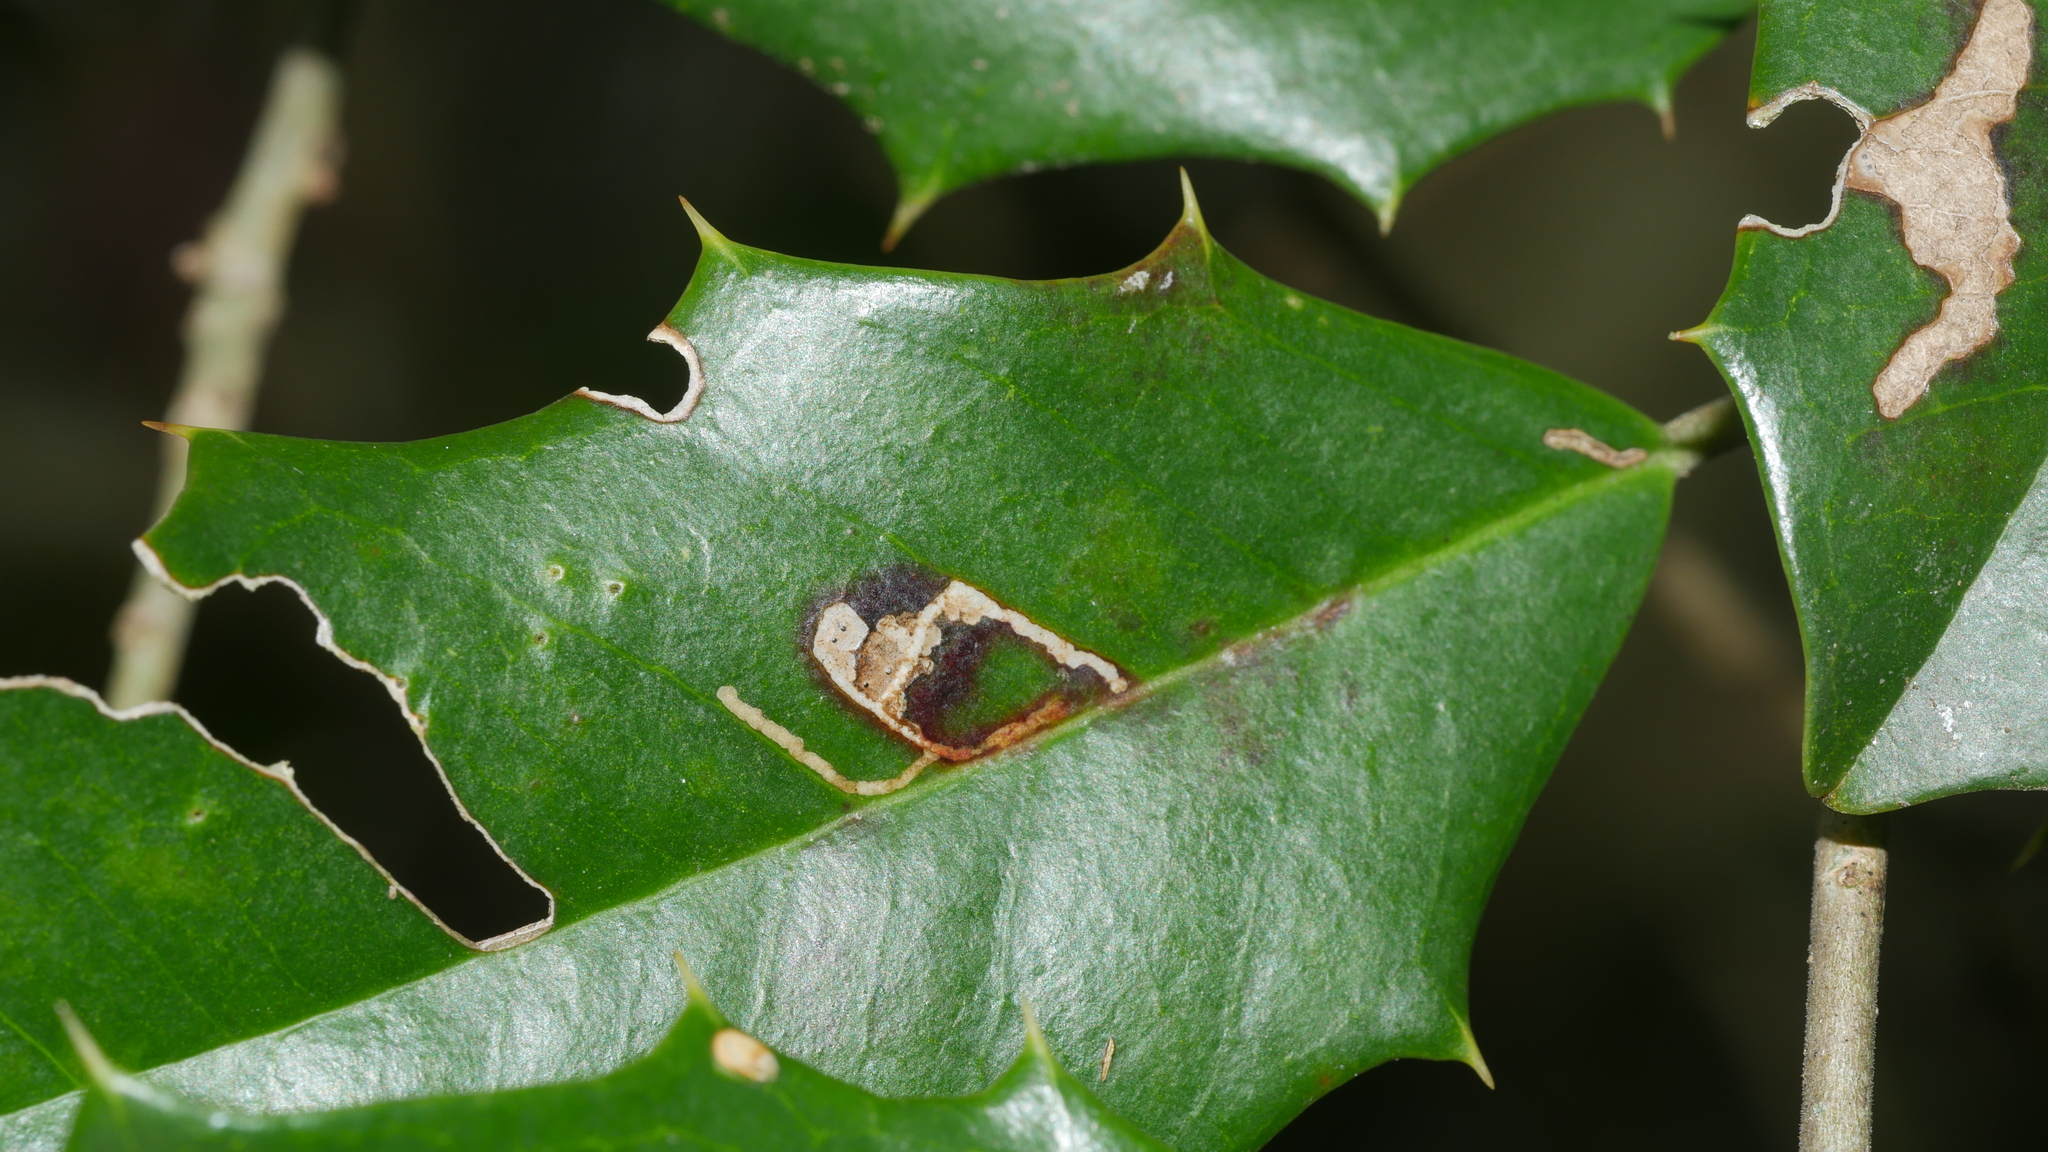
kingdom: Animalia
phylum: Arthropoda
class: Insecta
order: Lepidoptera
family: Tortricidae
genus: Rhopobota
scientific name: Rhopobota
